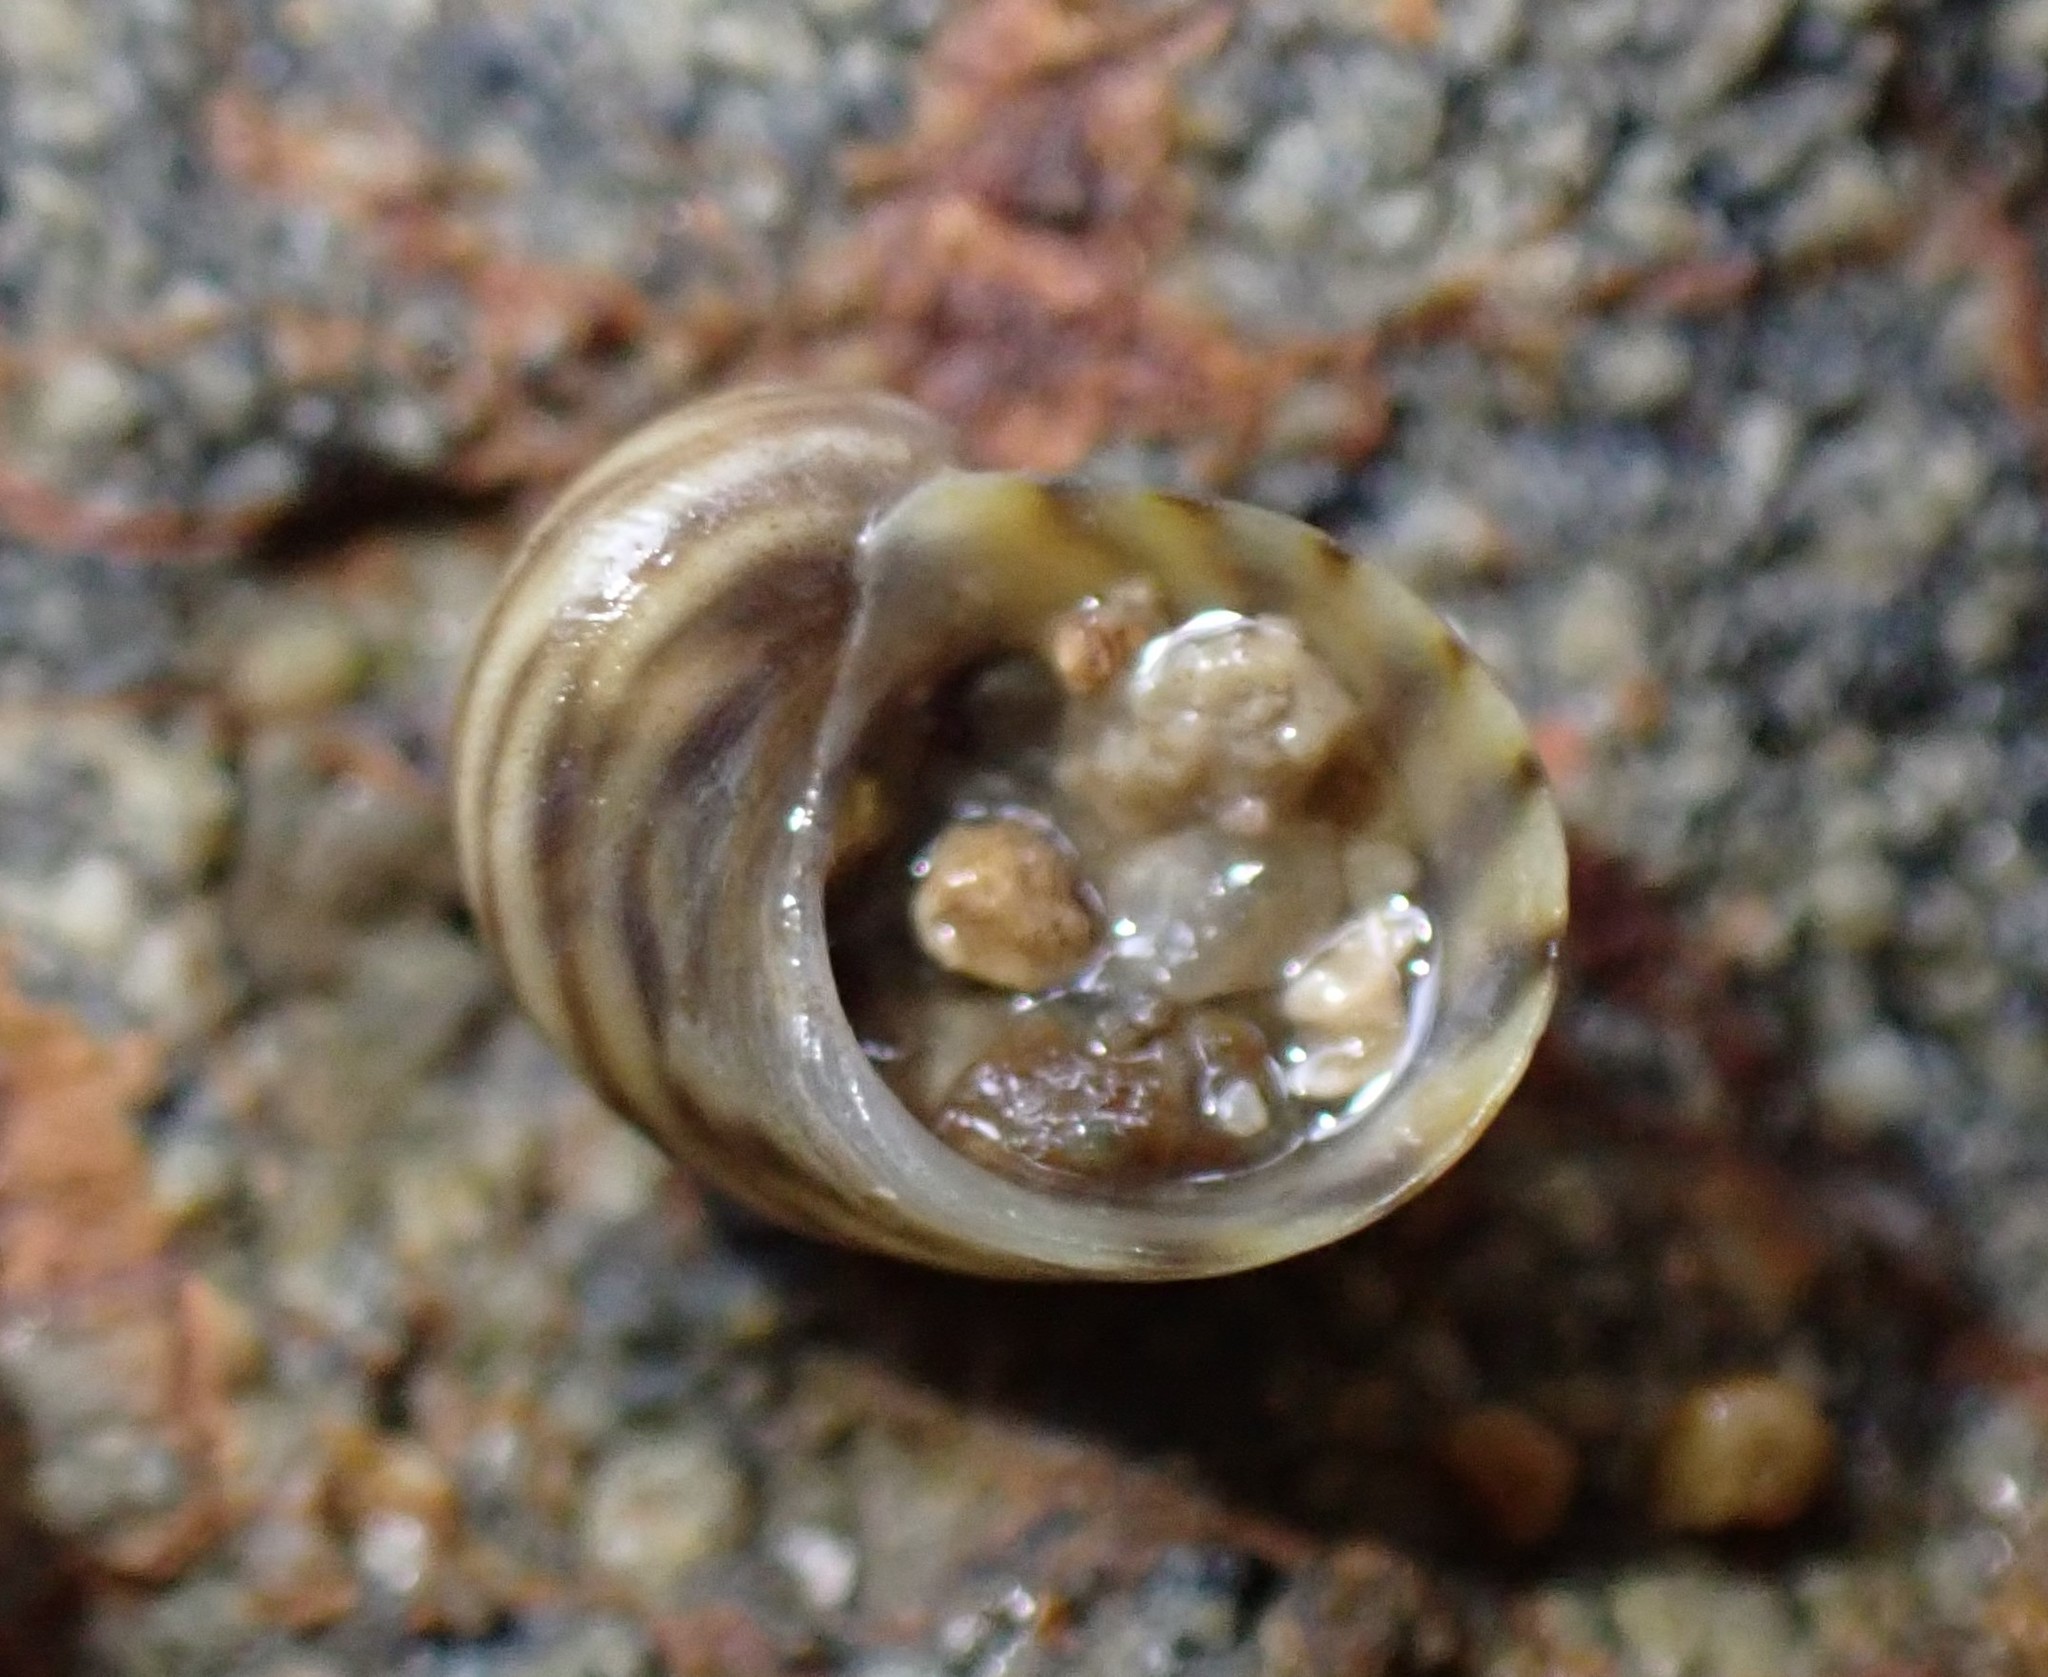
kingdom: Animalia
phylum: Mollusca
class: Gastropoda
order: Trochida
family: Trochidae
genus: Fossarina
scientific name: Fossarina rimata
